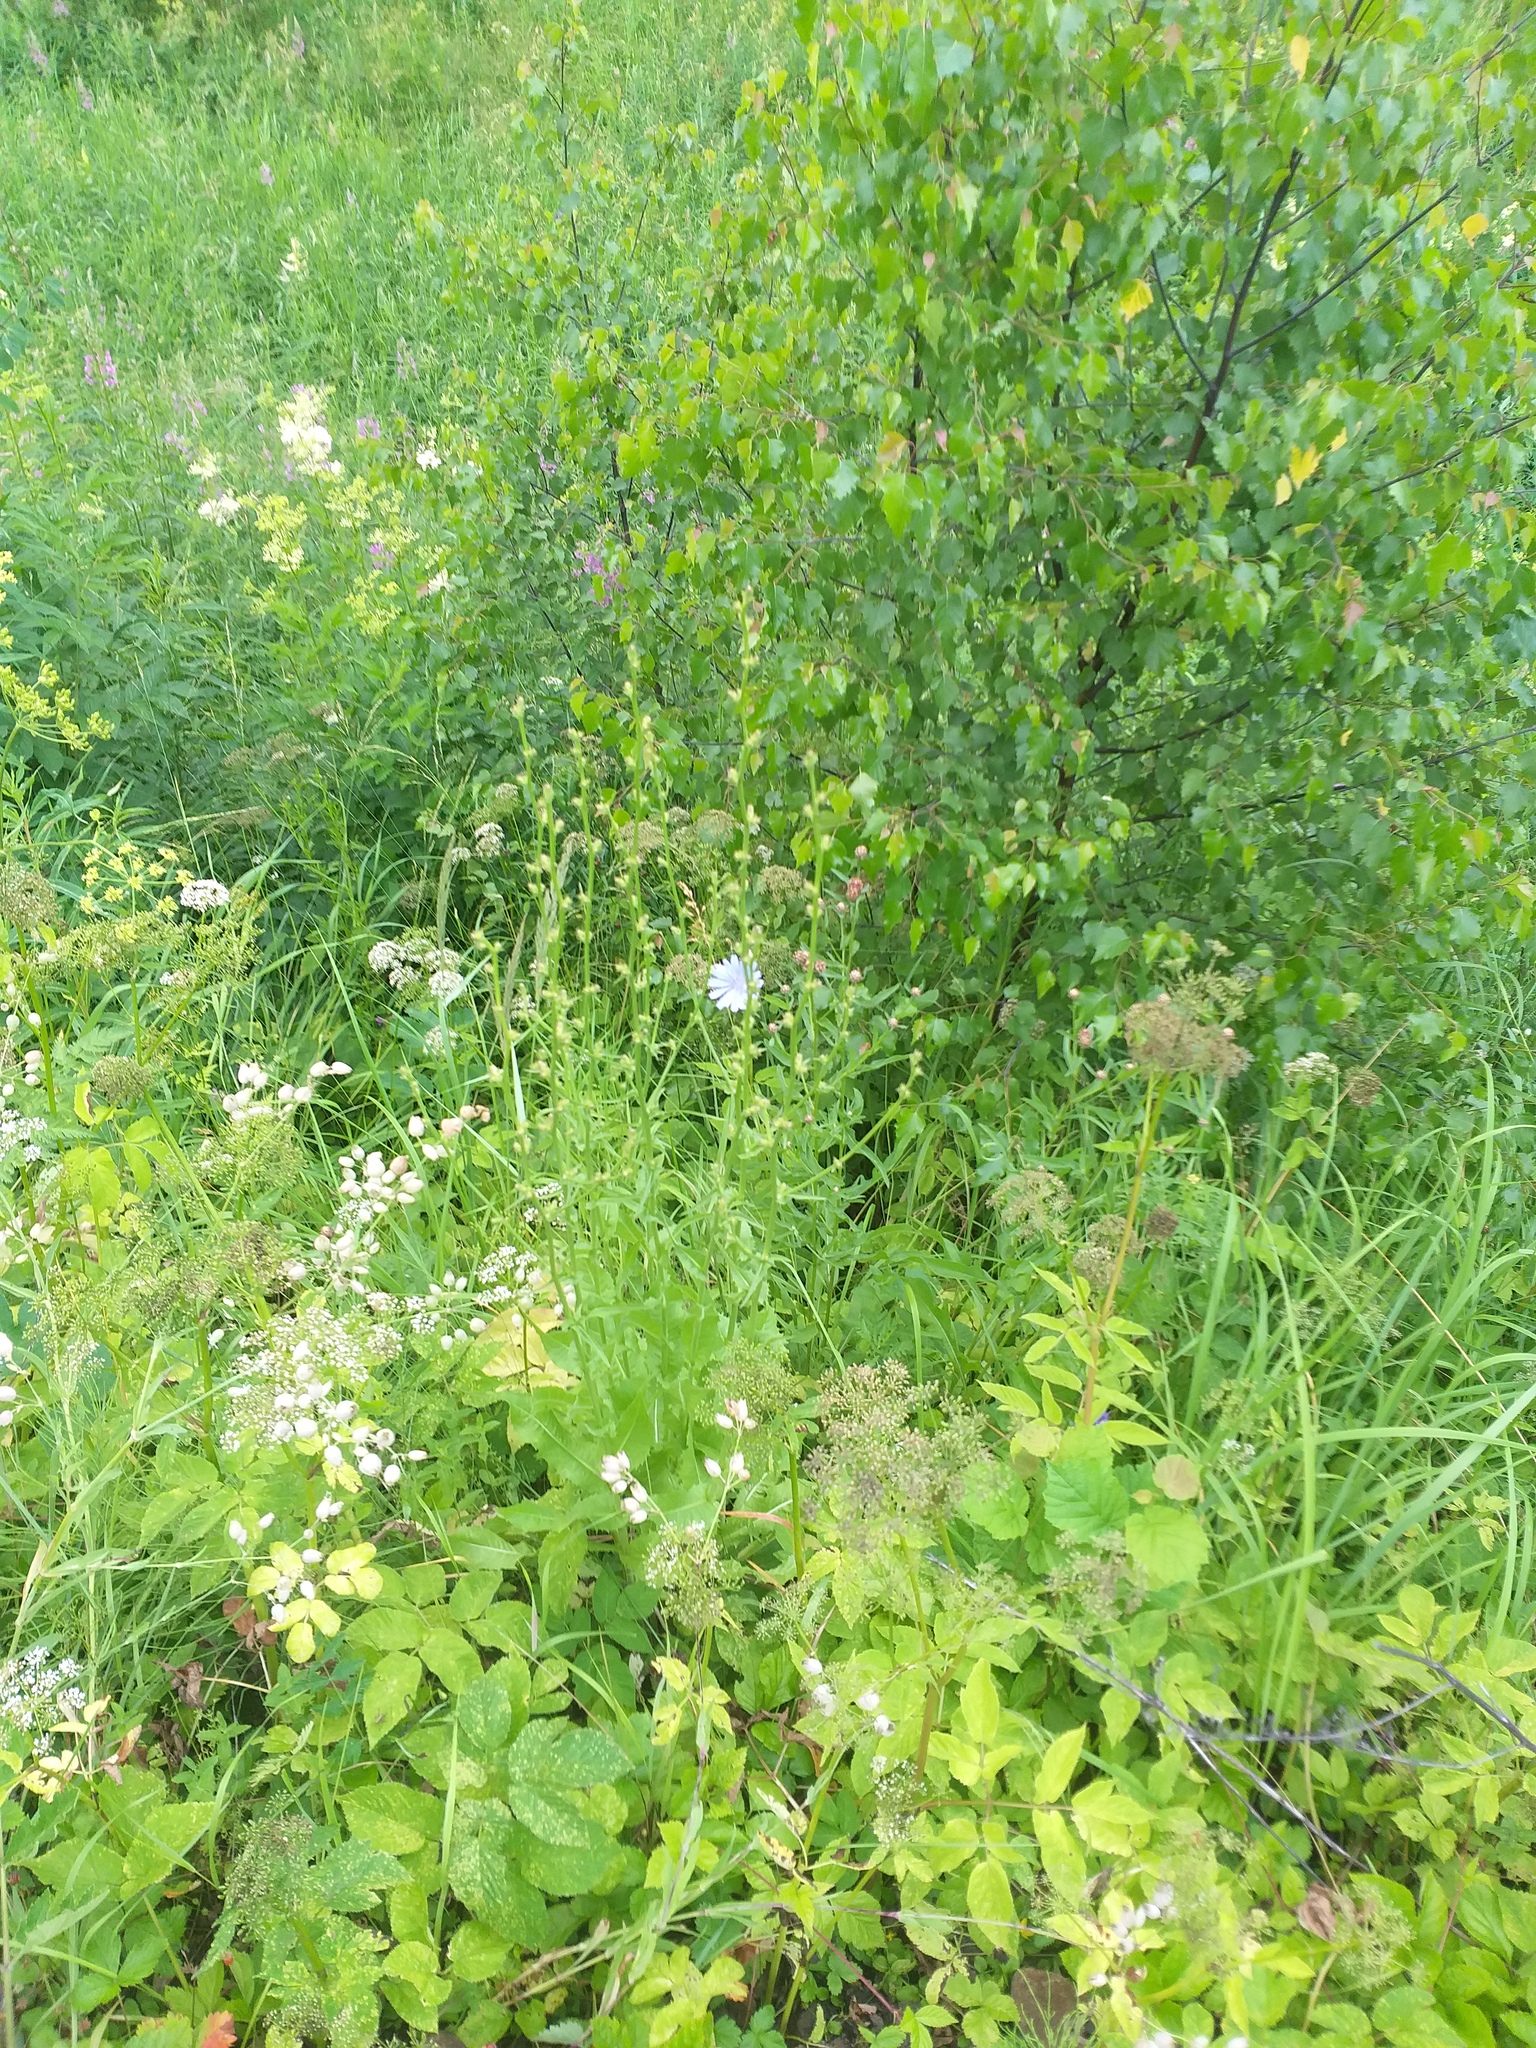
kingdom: Plantae
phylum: Tracheophyta
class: Magnoliopsida
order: Asterales
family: Asteraceae
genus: Cichorium
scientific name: Cichorium intybus
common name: Chicory
